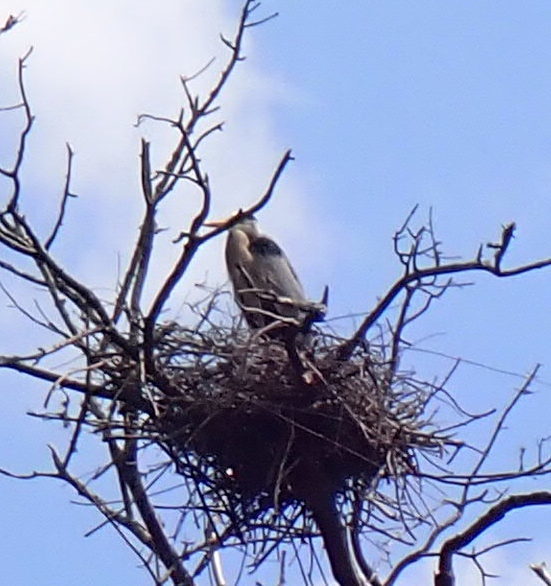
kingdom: Animalia
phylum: Chordata
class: Aves
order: Pelecaniformes
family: Ardeidae
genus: Ardea
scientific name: Ardea herodias
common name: Great blue heron
